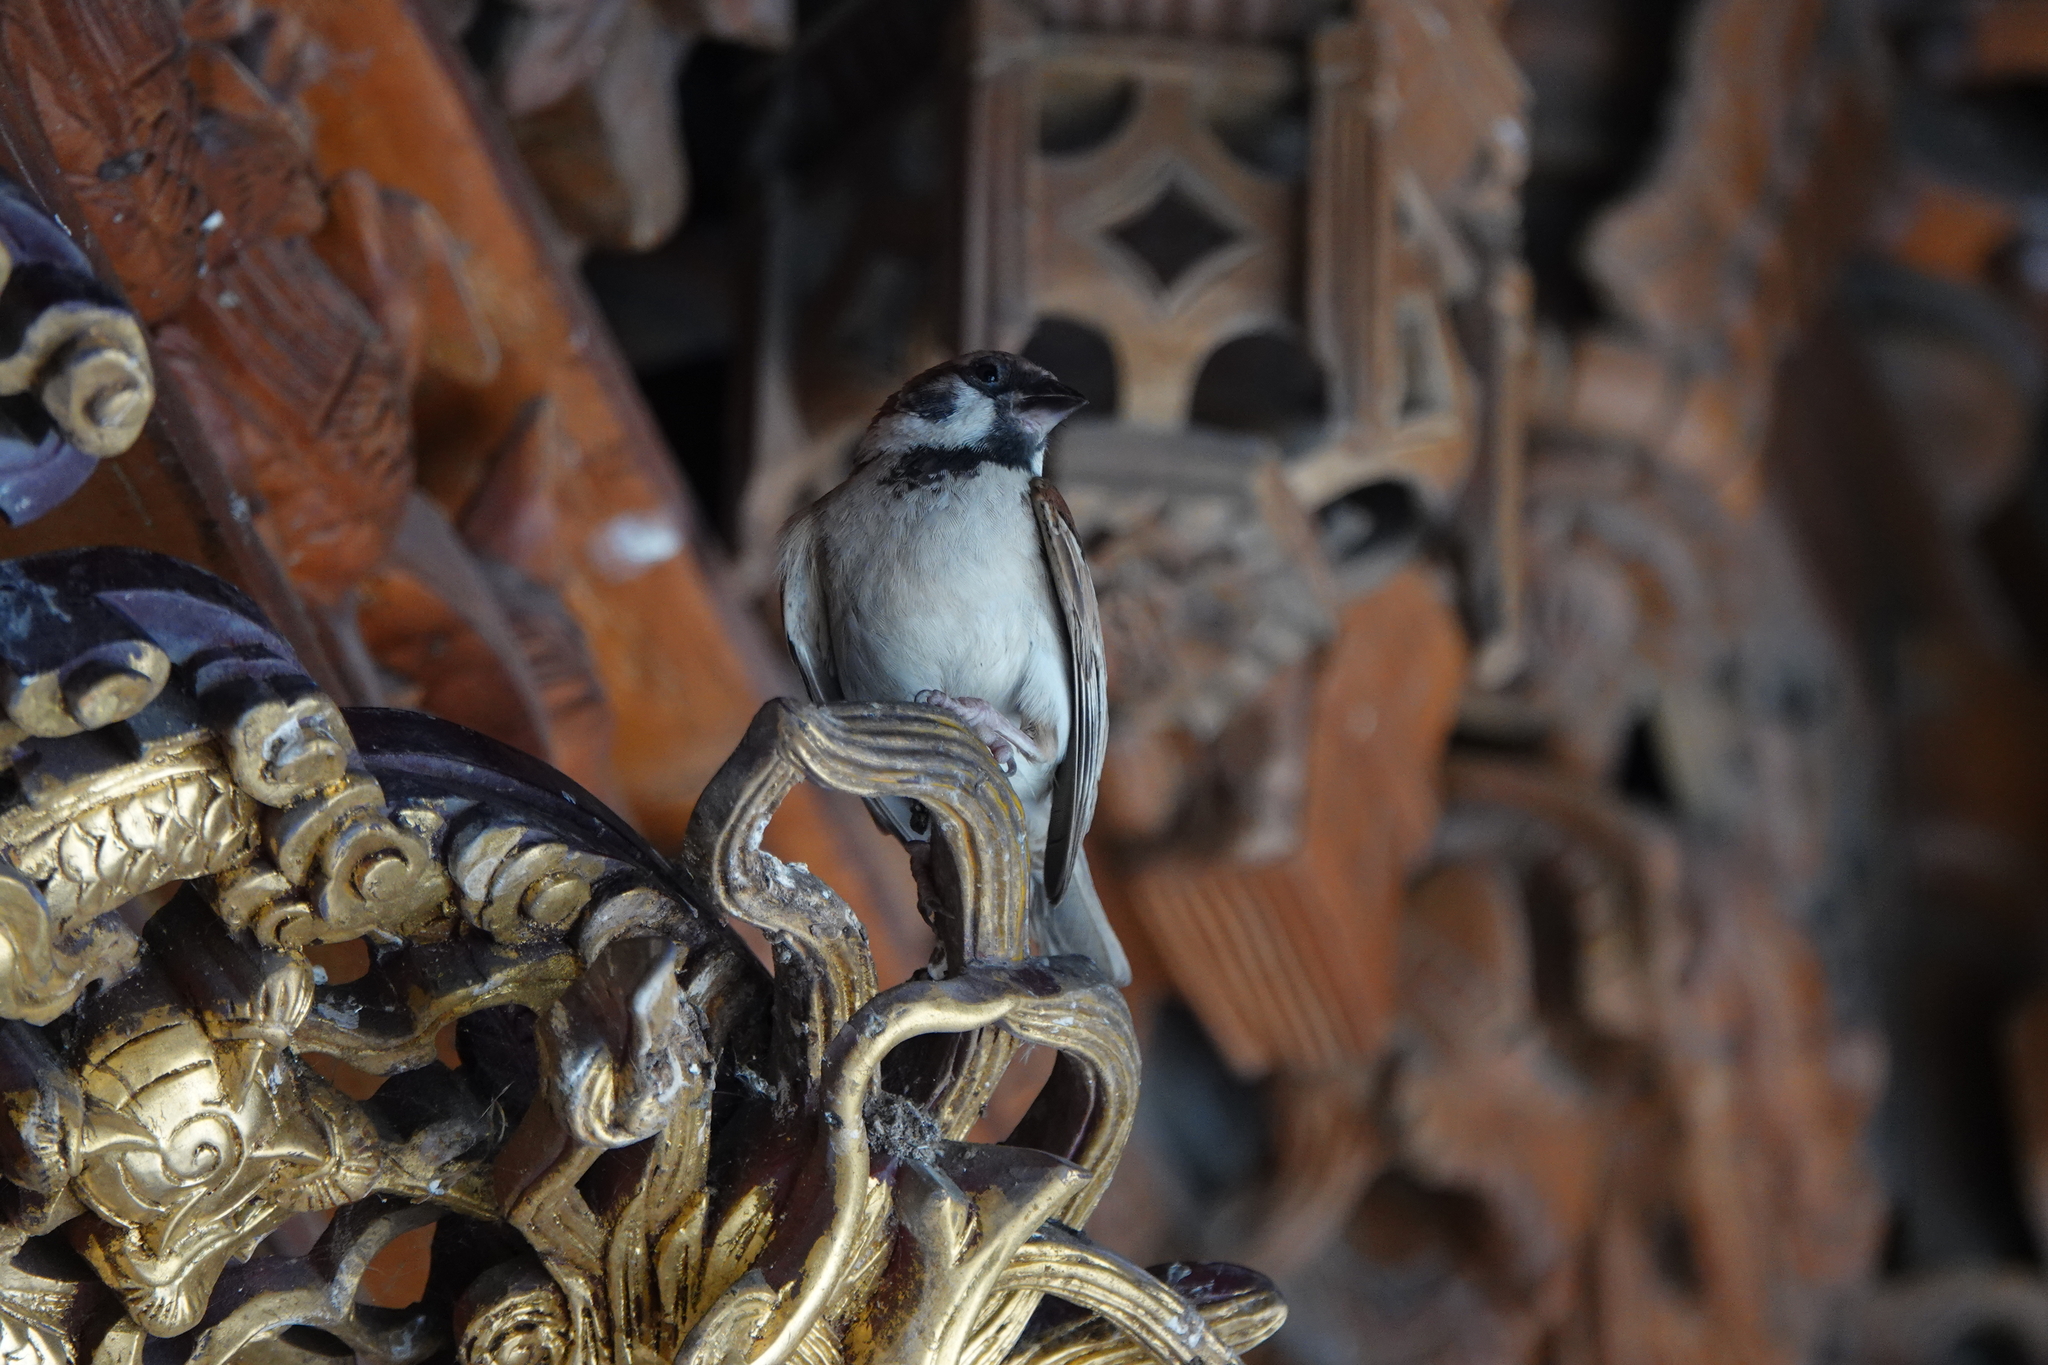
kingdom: Animalia
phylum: Chordata
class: Aves
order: Passeriformes
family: Passeridae
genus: Passer
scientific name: Passer montanus
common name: Eurasian tree sparrow
